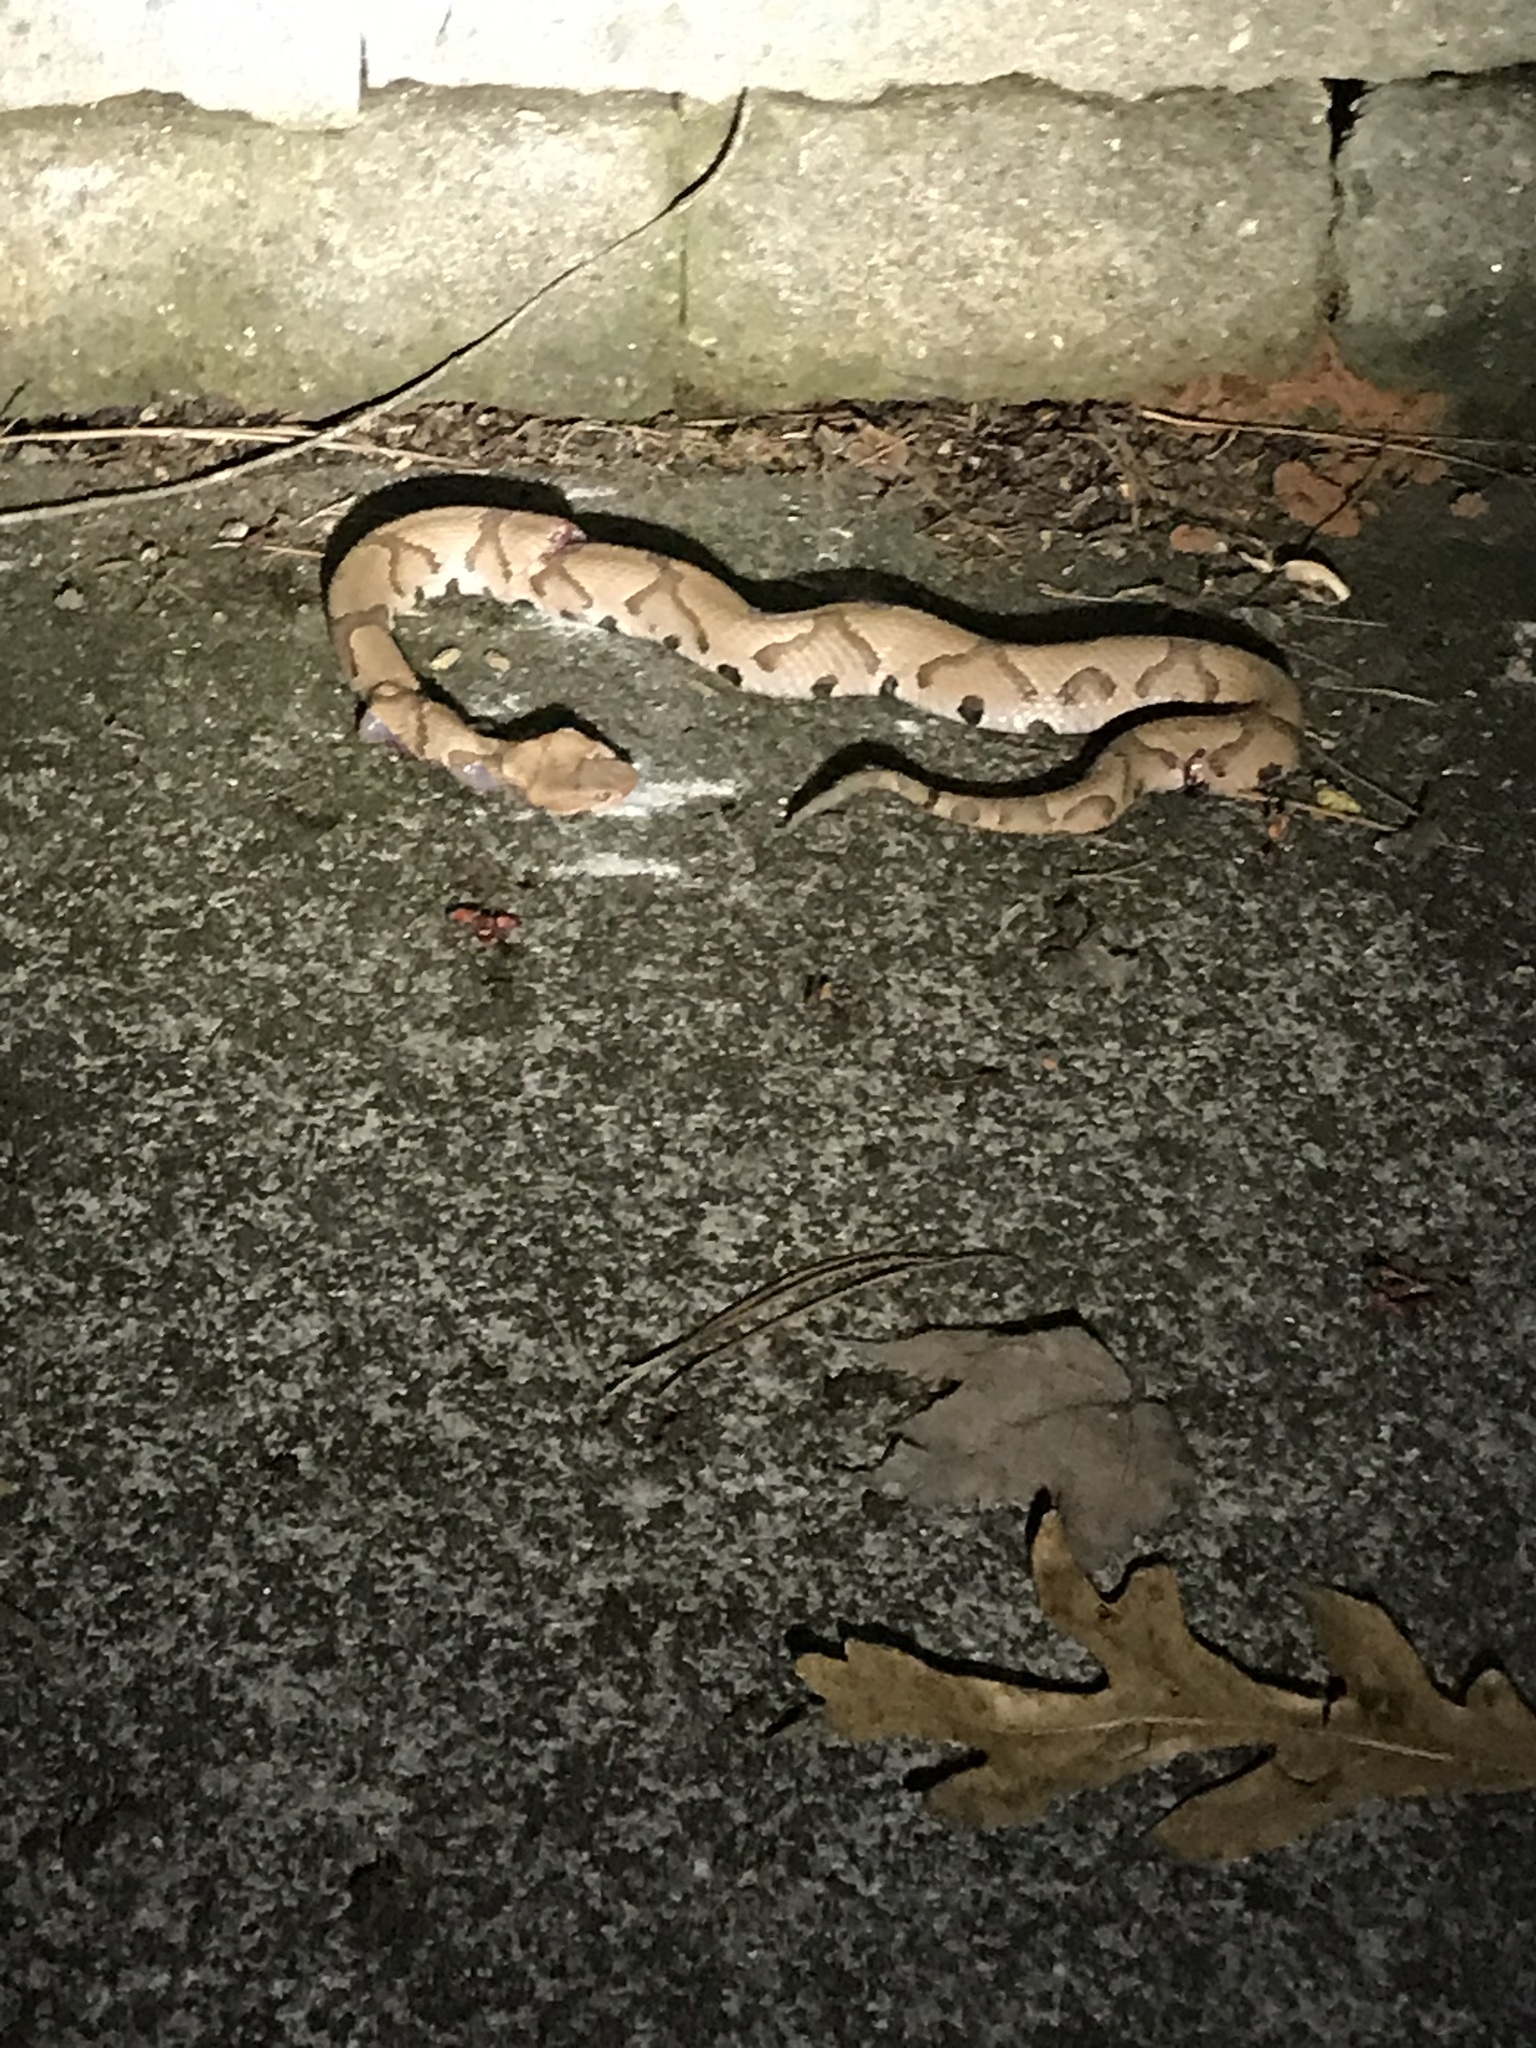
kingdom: Animalia
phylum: Chordata
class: Squamata
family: Viperidae
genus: Agkistrodon
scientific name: Agkistrodon contortrix
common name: Northern copperhead
